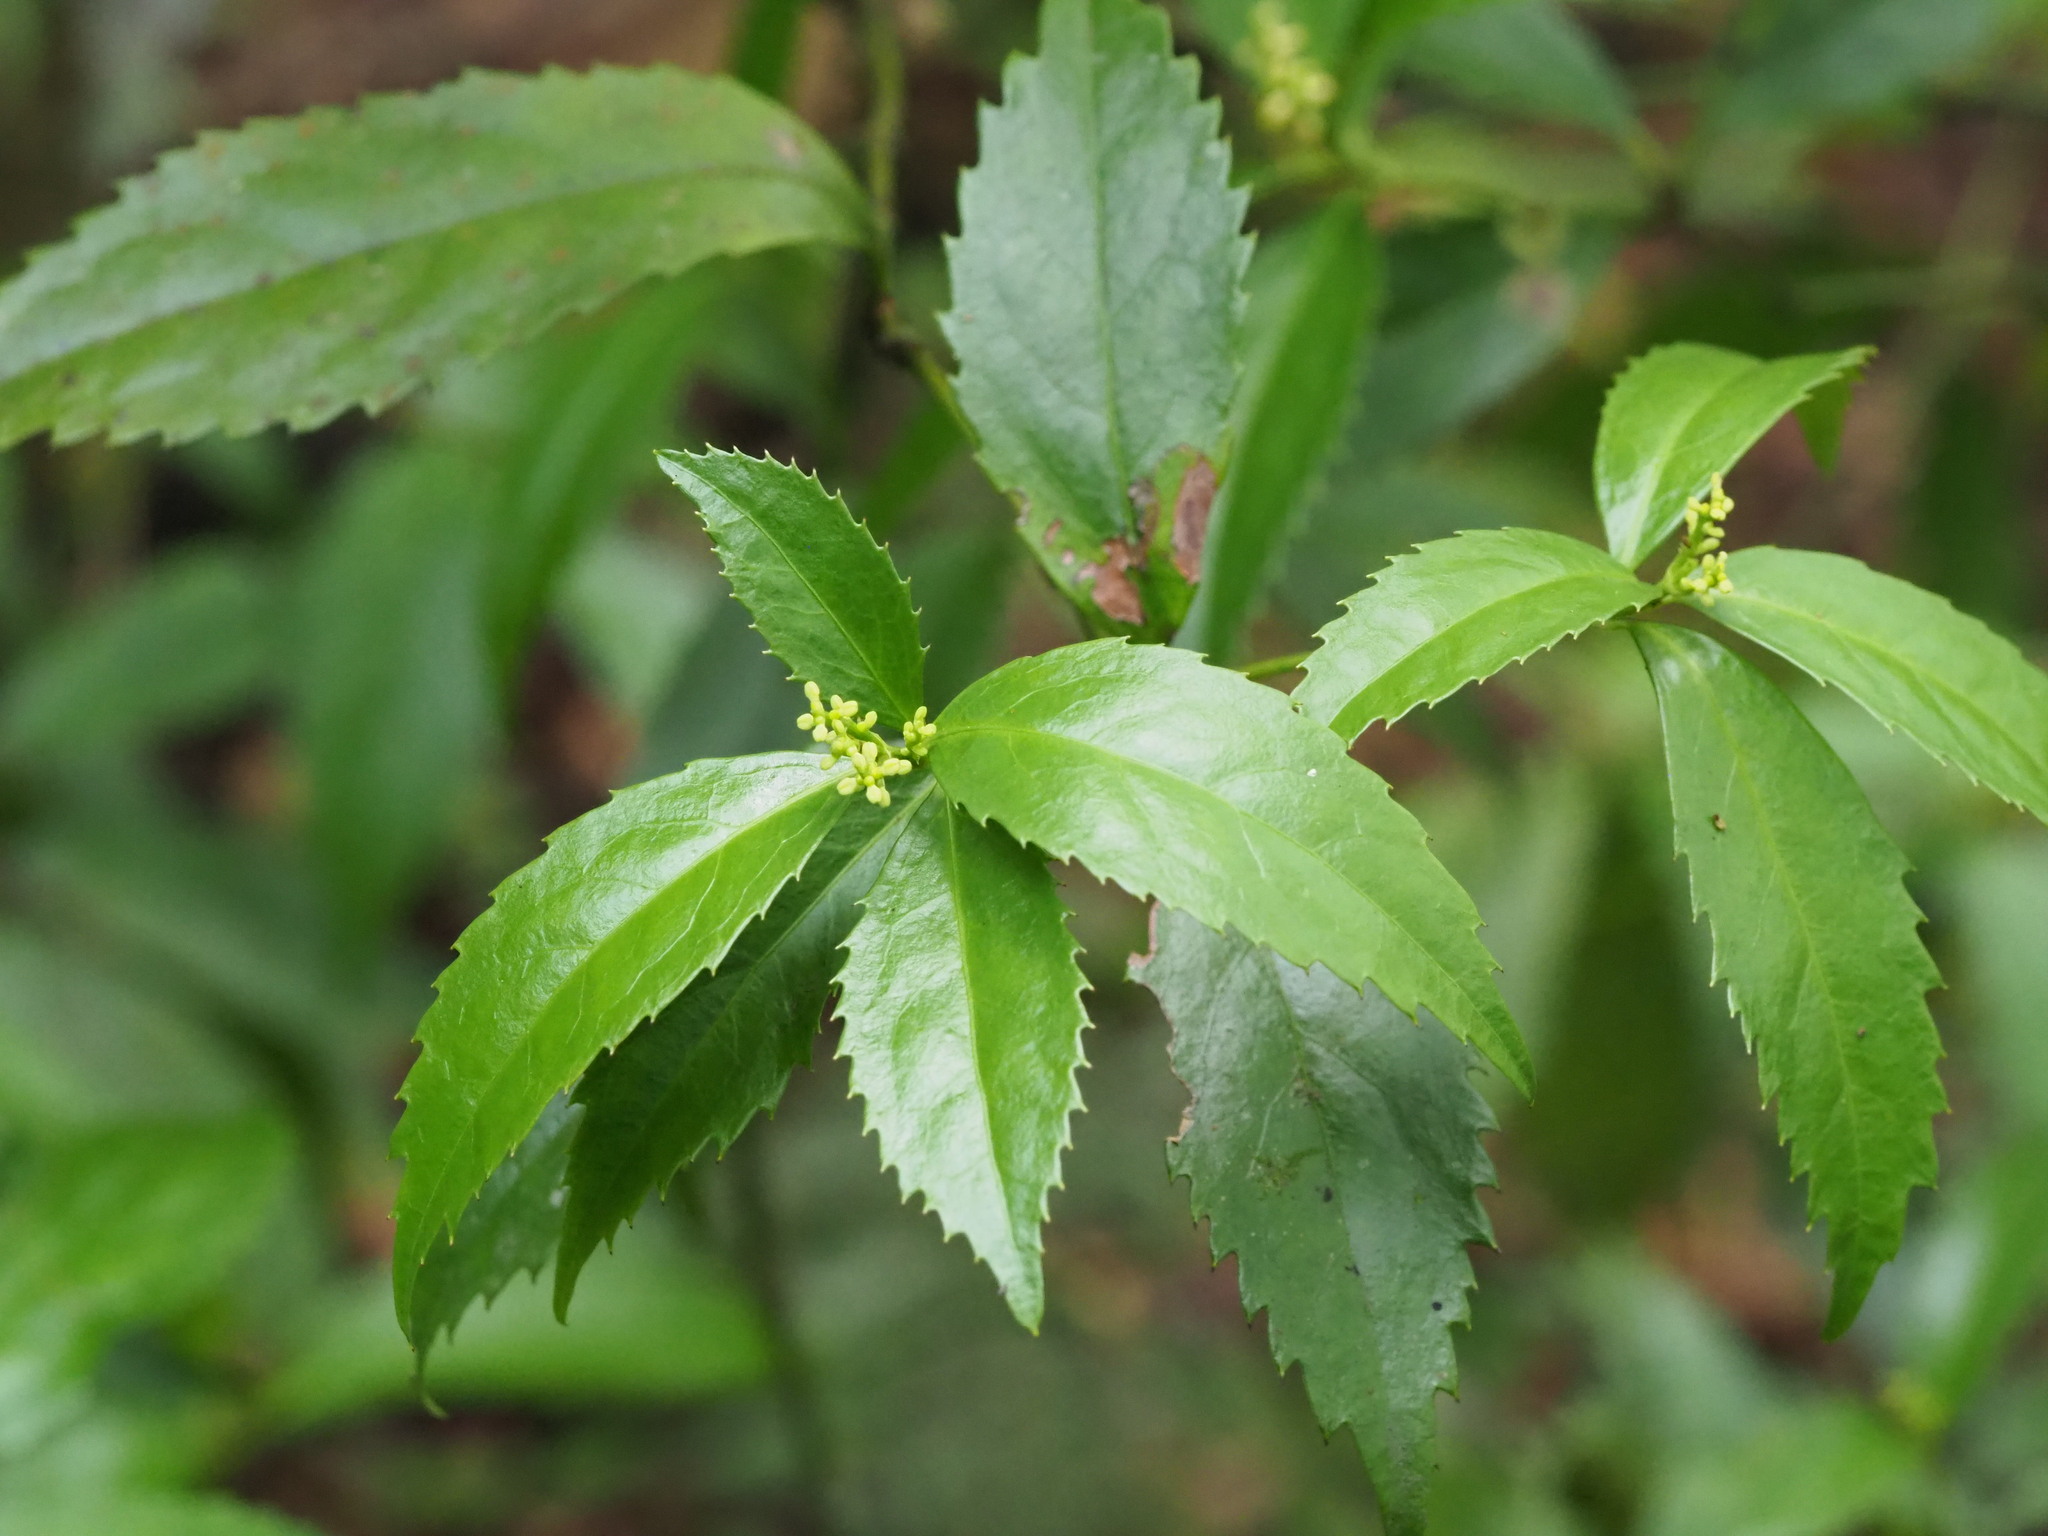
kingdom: Plantae
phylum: Tracheophyta
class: Magnoliopsida
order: Chloranthales
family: Chloranthaceae
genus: Sarcandra
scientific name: Sarcandra glabra
